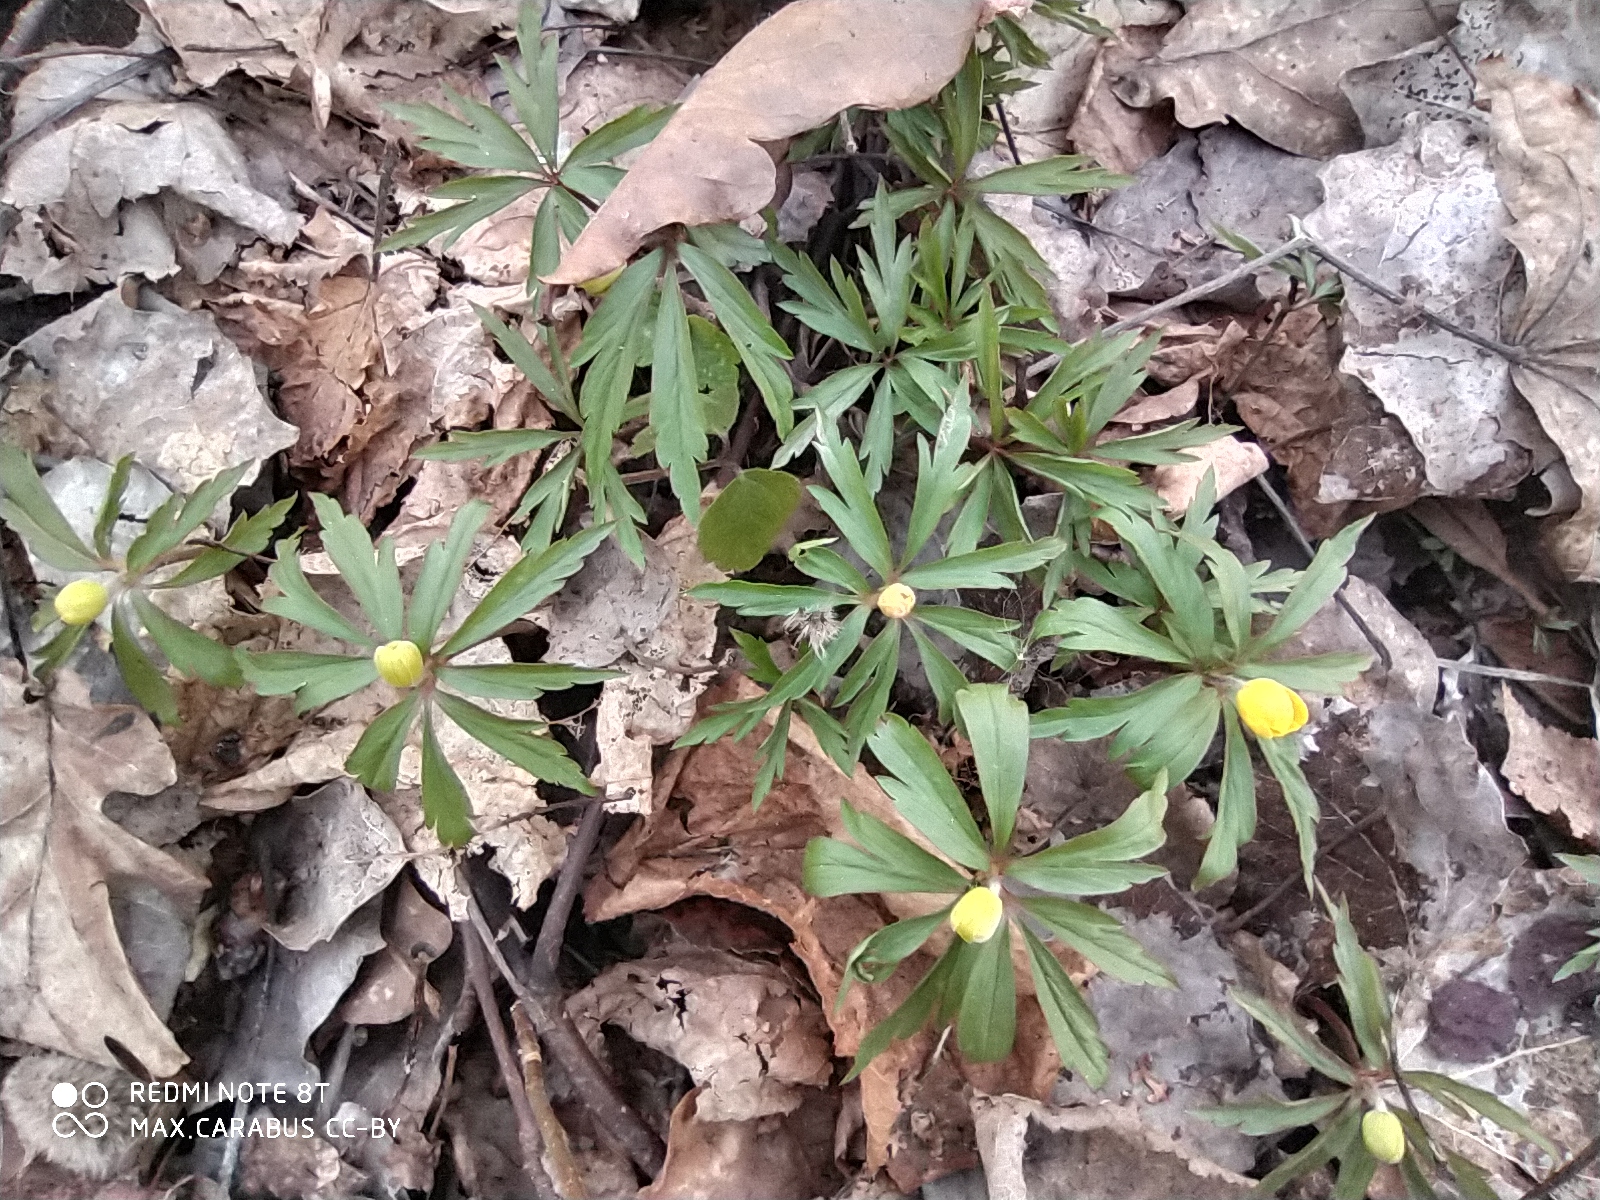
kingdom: Plantae
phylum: Tracheophyta
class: Magnoliopsida
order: Ranunculales
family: Ranunculaceae
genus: Anemone
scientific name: Anemone ranunculoides
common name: Yellow anemone
